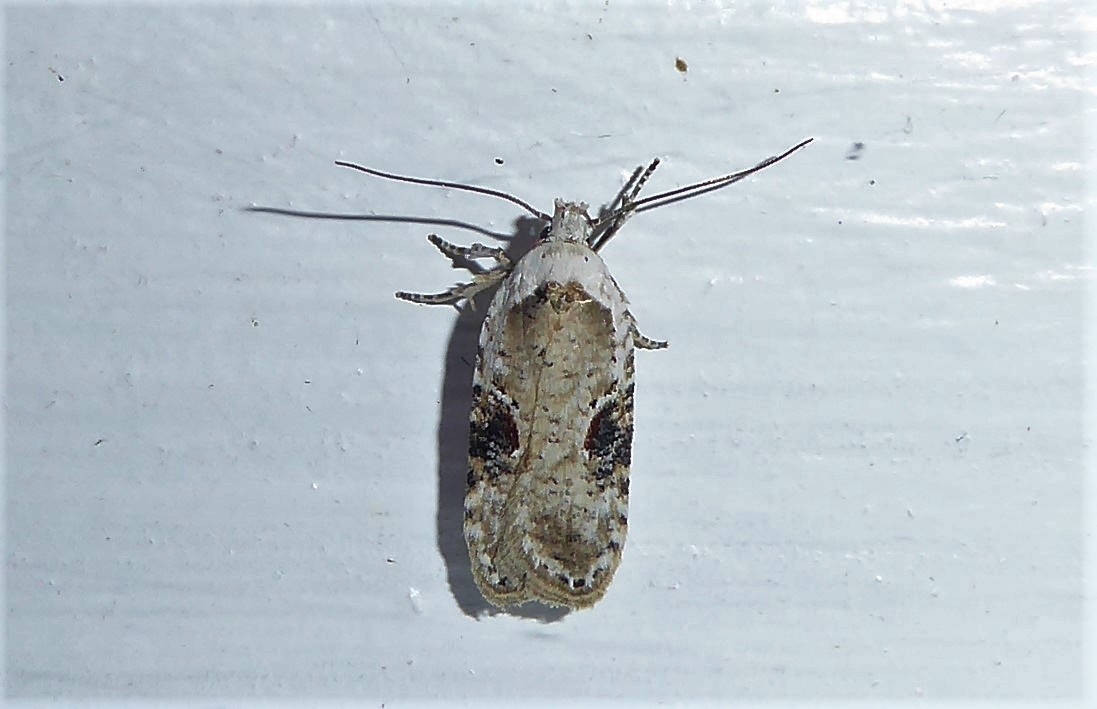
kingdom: Animalia
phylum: Arthropoda
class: Insecta
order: Lepidoptera
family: Depressariidae
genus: Agonopterix
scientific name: Agonopterix alstroemeriana
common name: Moth
